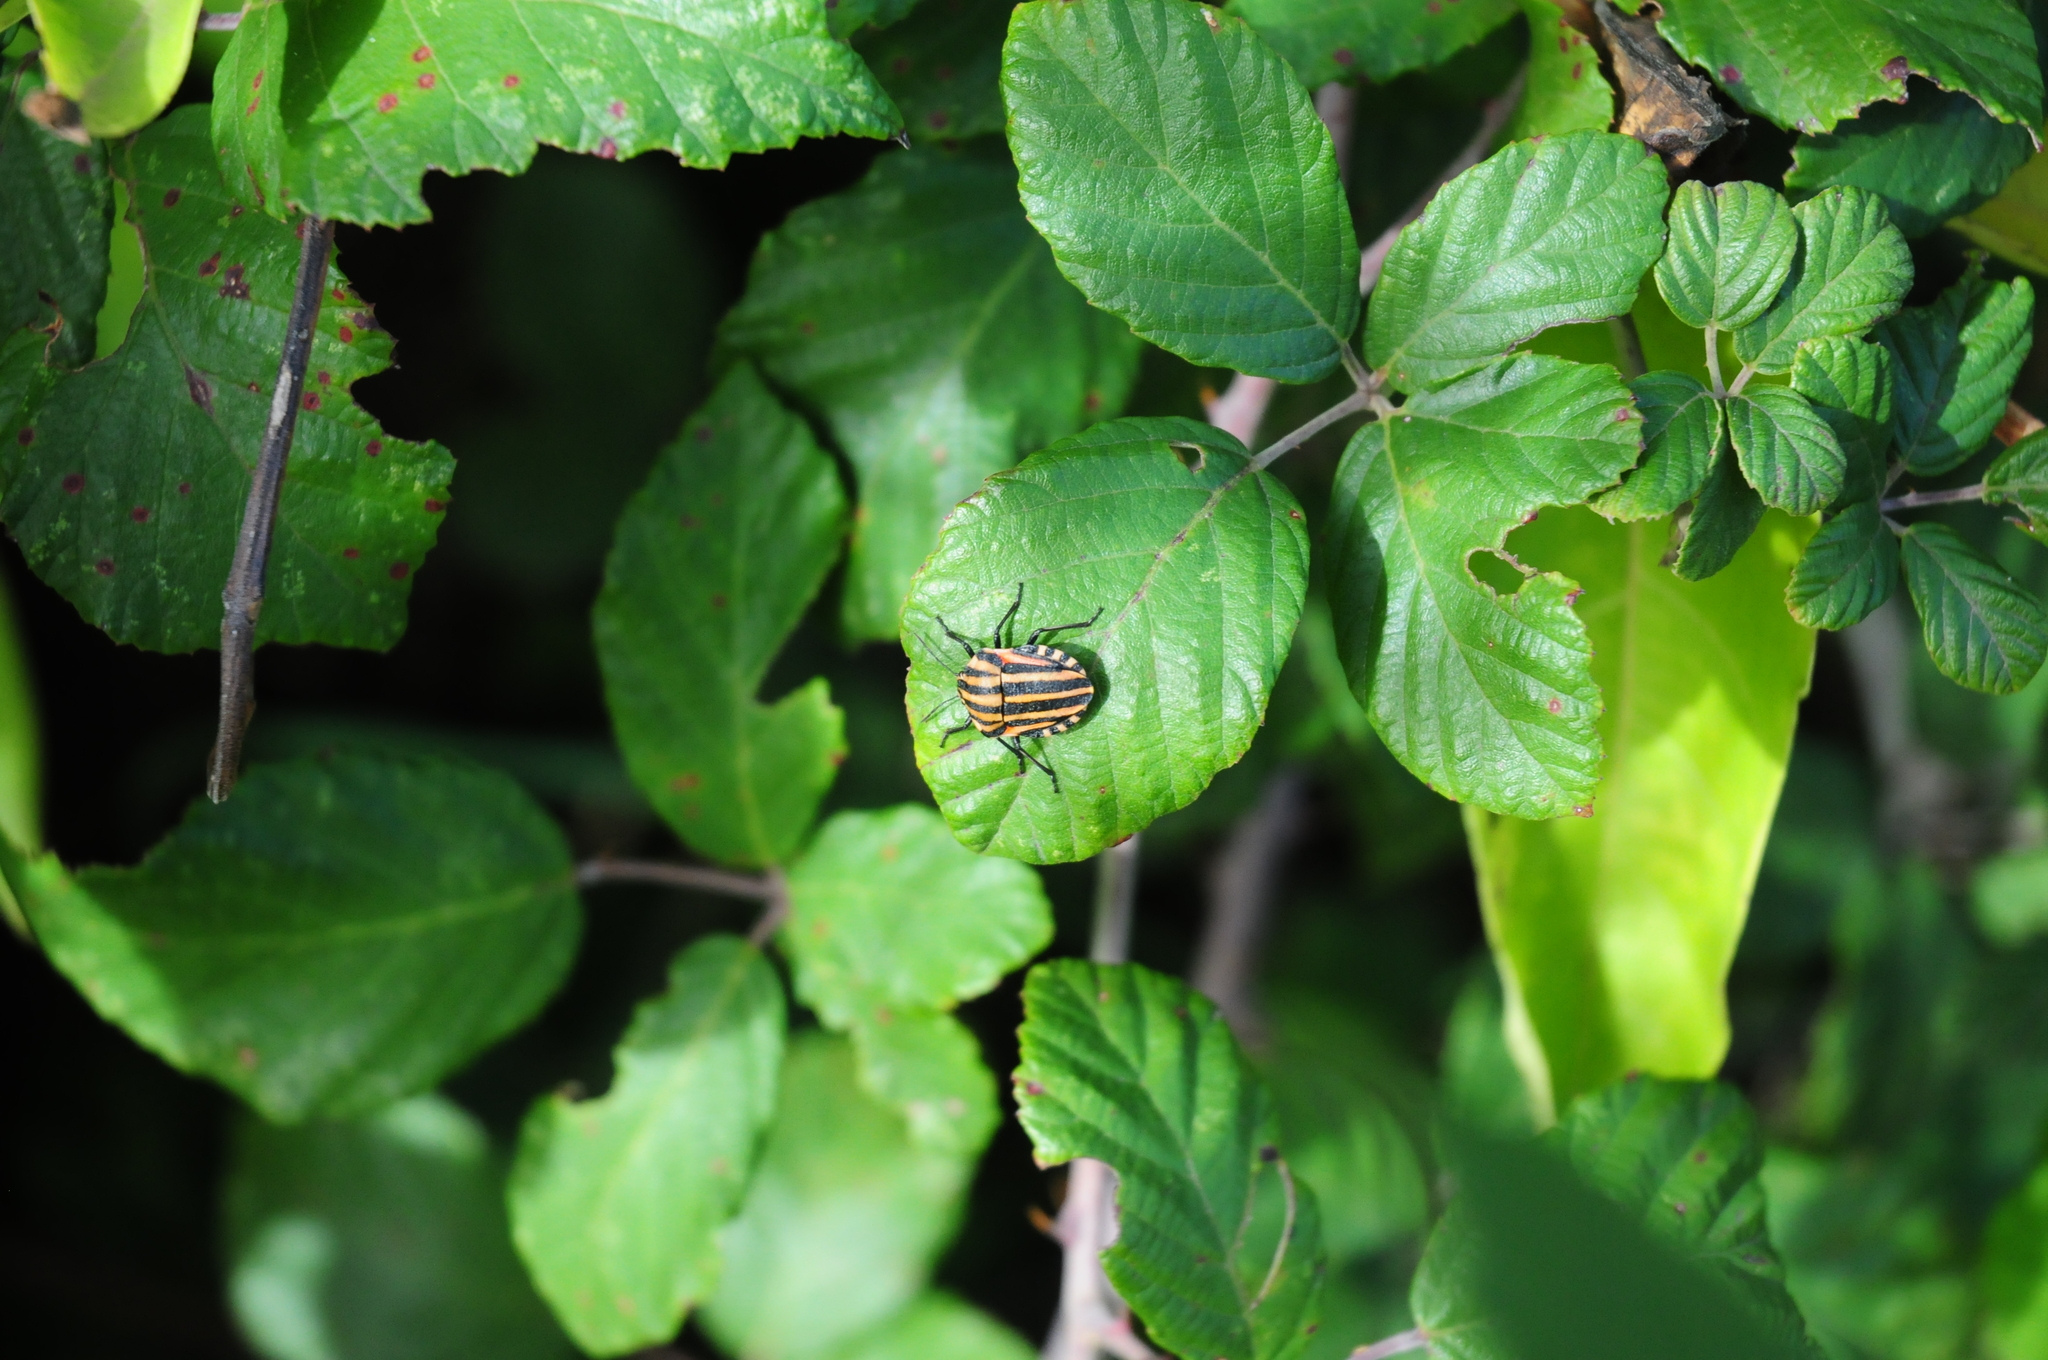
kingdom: Animalia
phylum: Arthropoda
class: Insecta
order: Hemiptera
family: Pentatomidae
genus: Graphosoma
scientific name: Graphosoma italicum
